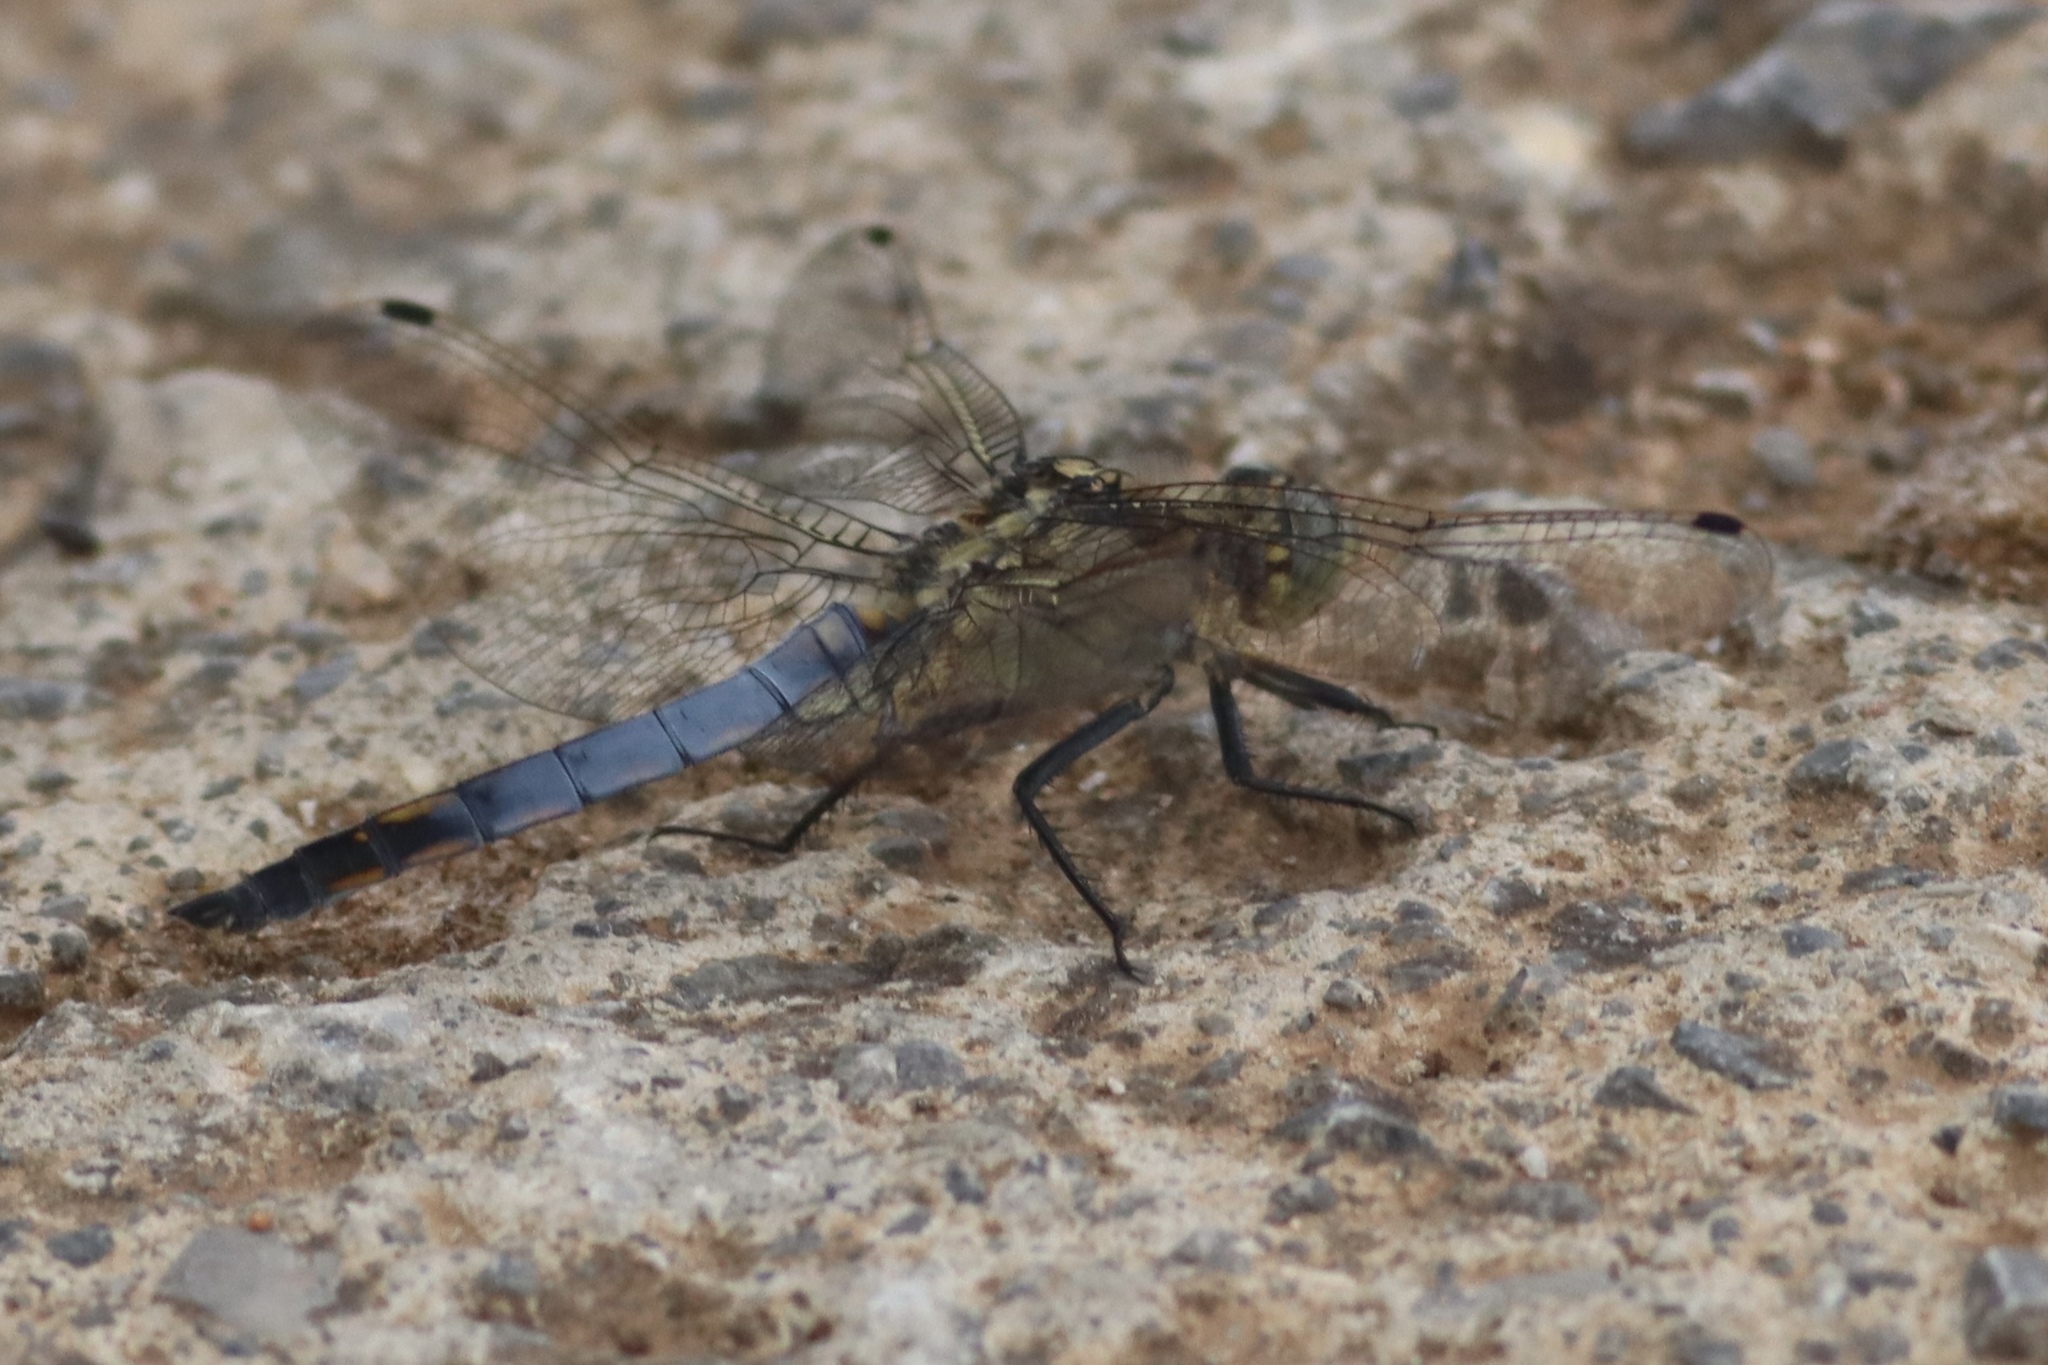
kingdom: Animalia
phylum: Arthropoda
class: Insecta
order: Odonata
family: Libellulidae
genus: Orthetrum
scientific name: Orthetrum cancellatum
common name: Black-tailed skimmer
